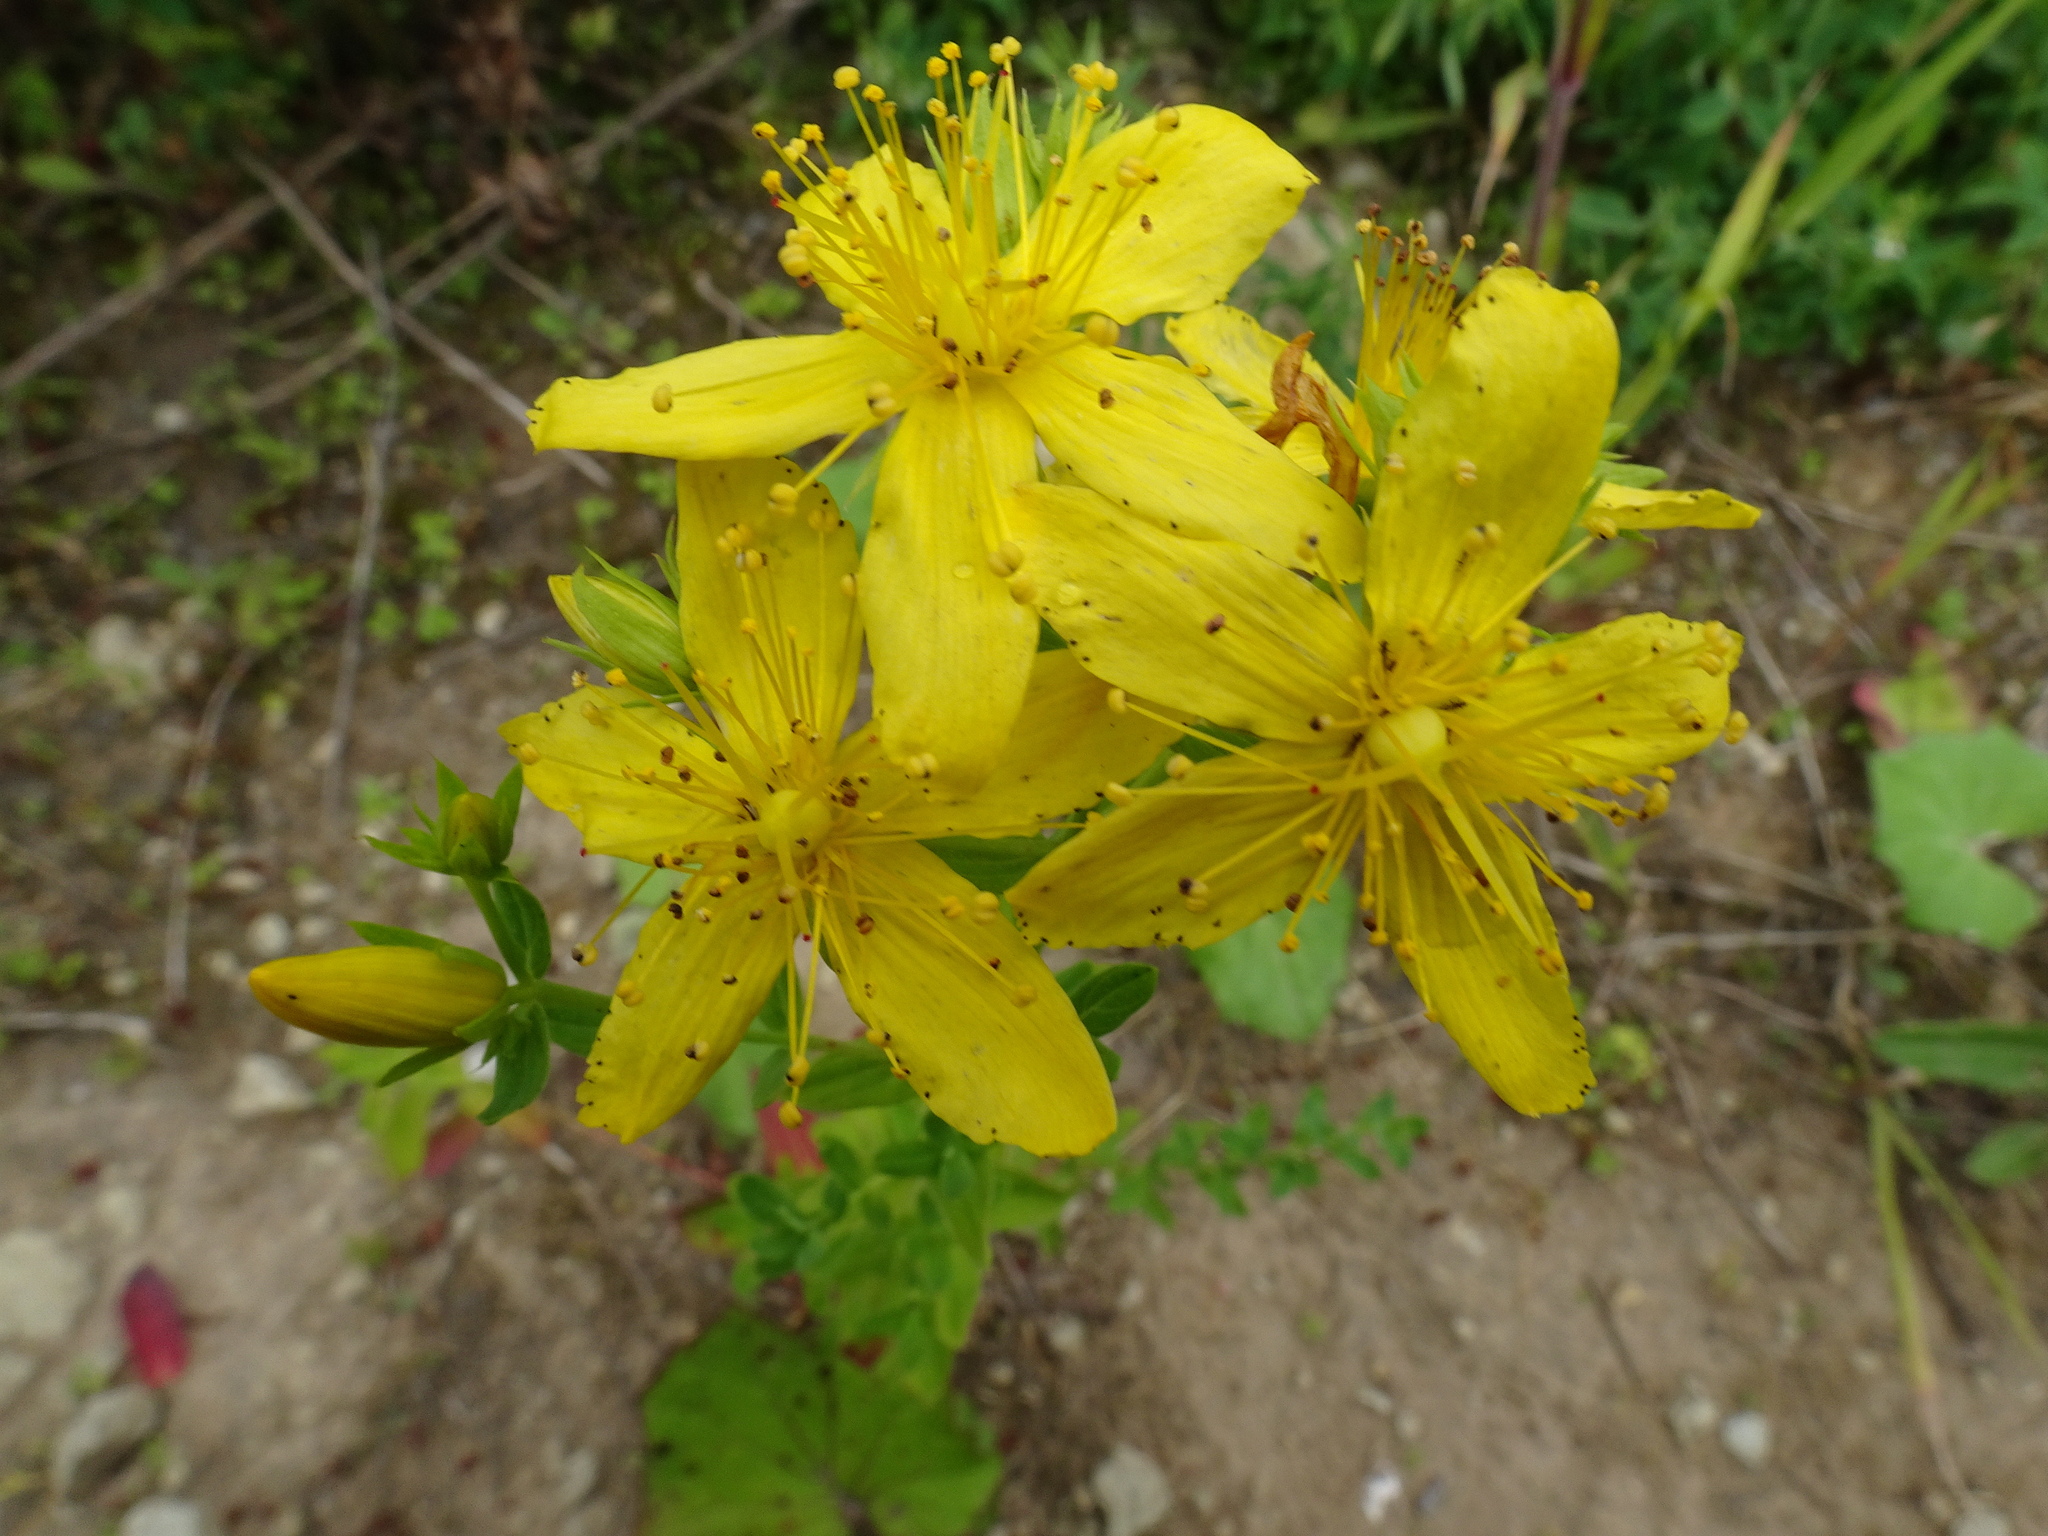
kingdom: Plantae
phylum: Tracheophyta
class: Magnoliopsida
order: Malpighiales
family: Hypericaceae
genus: Hypericum
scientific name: Hypericum perforatum
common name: Common st. johnswort
